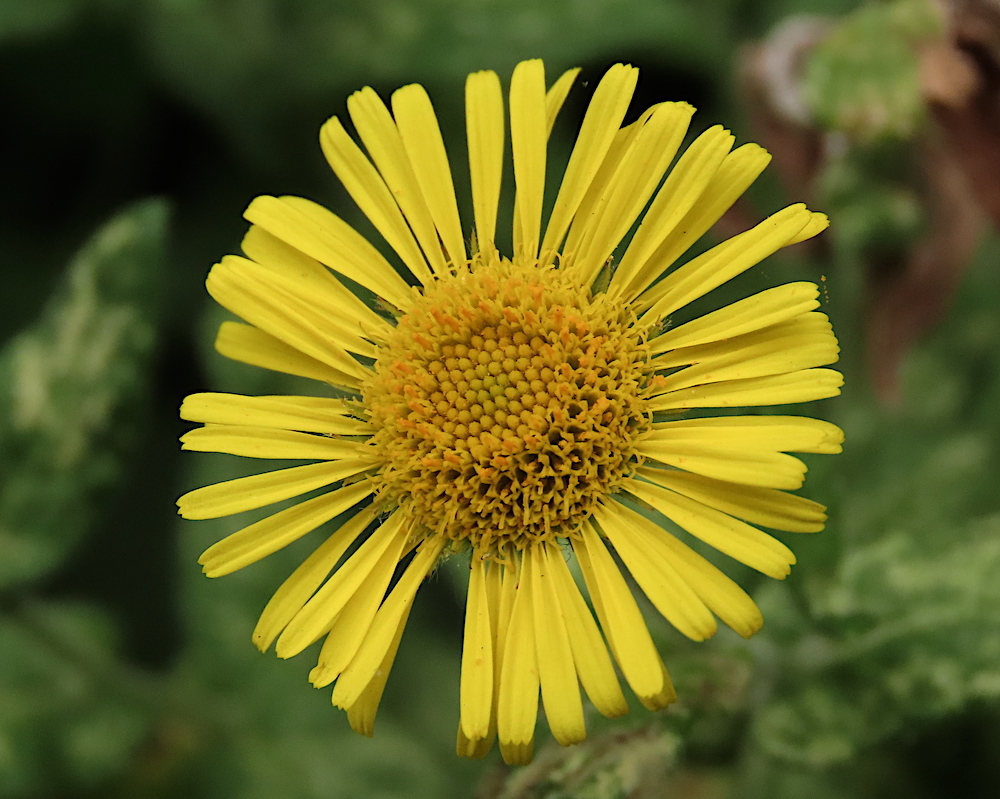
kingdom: Plantae
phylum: Tracheophyta
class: Magnoliopsida
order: Asterales
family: Asteraceae
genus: Pulicaria
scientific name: Pulicaria dysenterica
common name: Common fleabane
